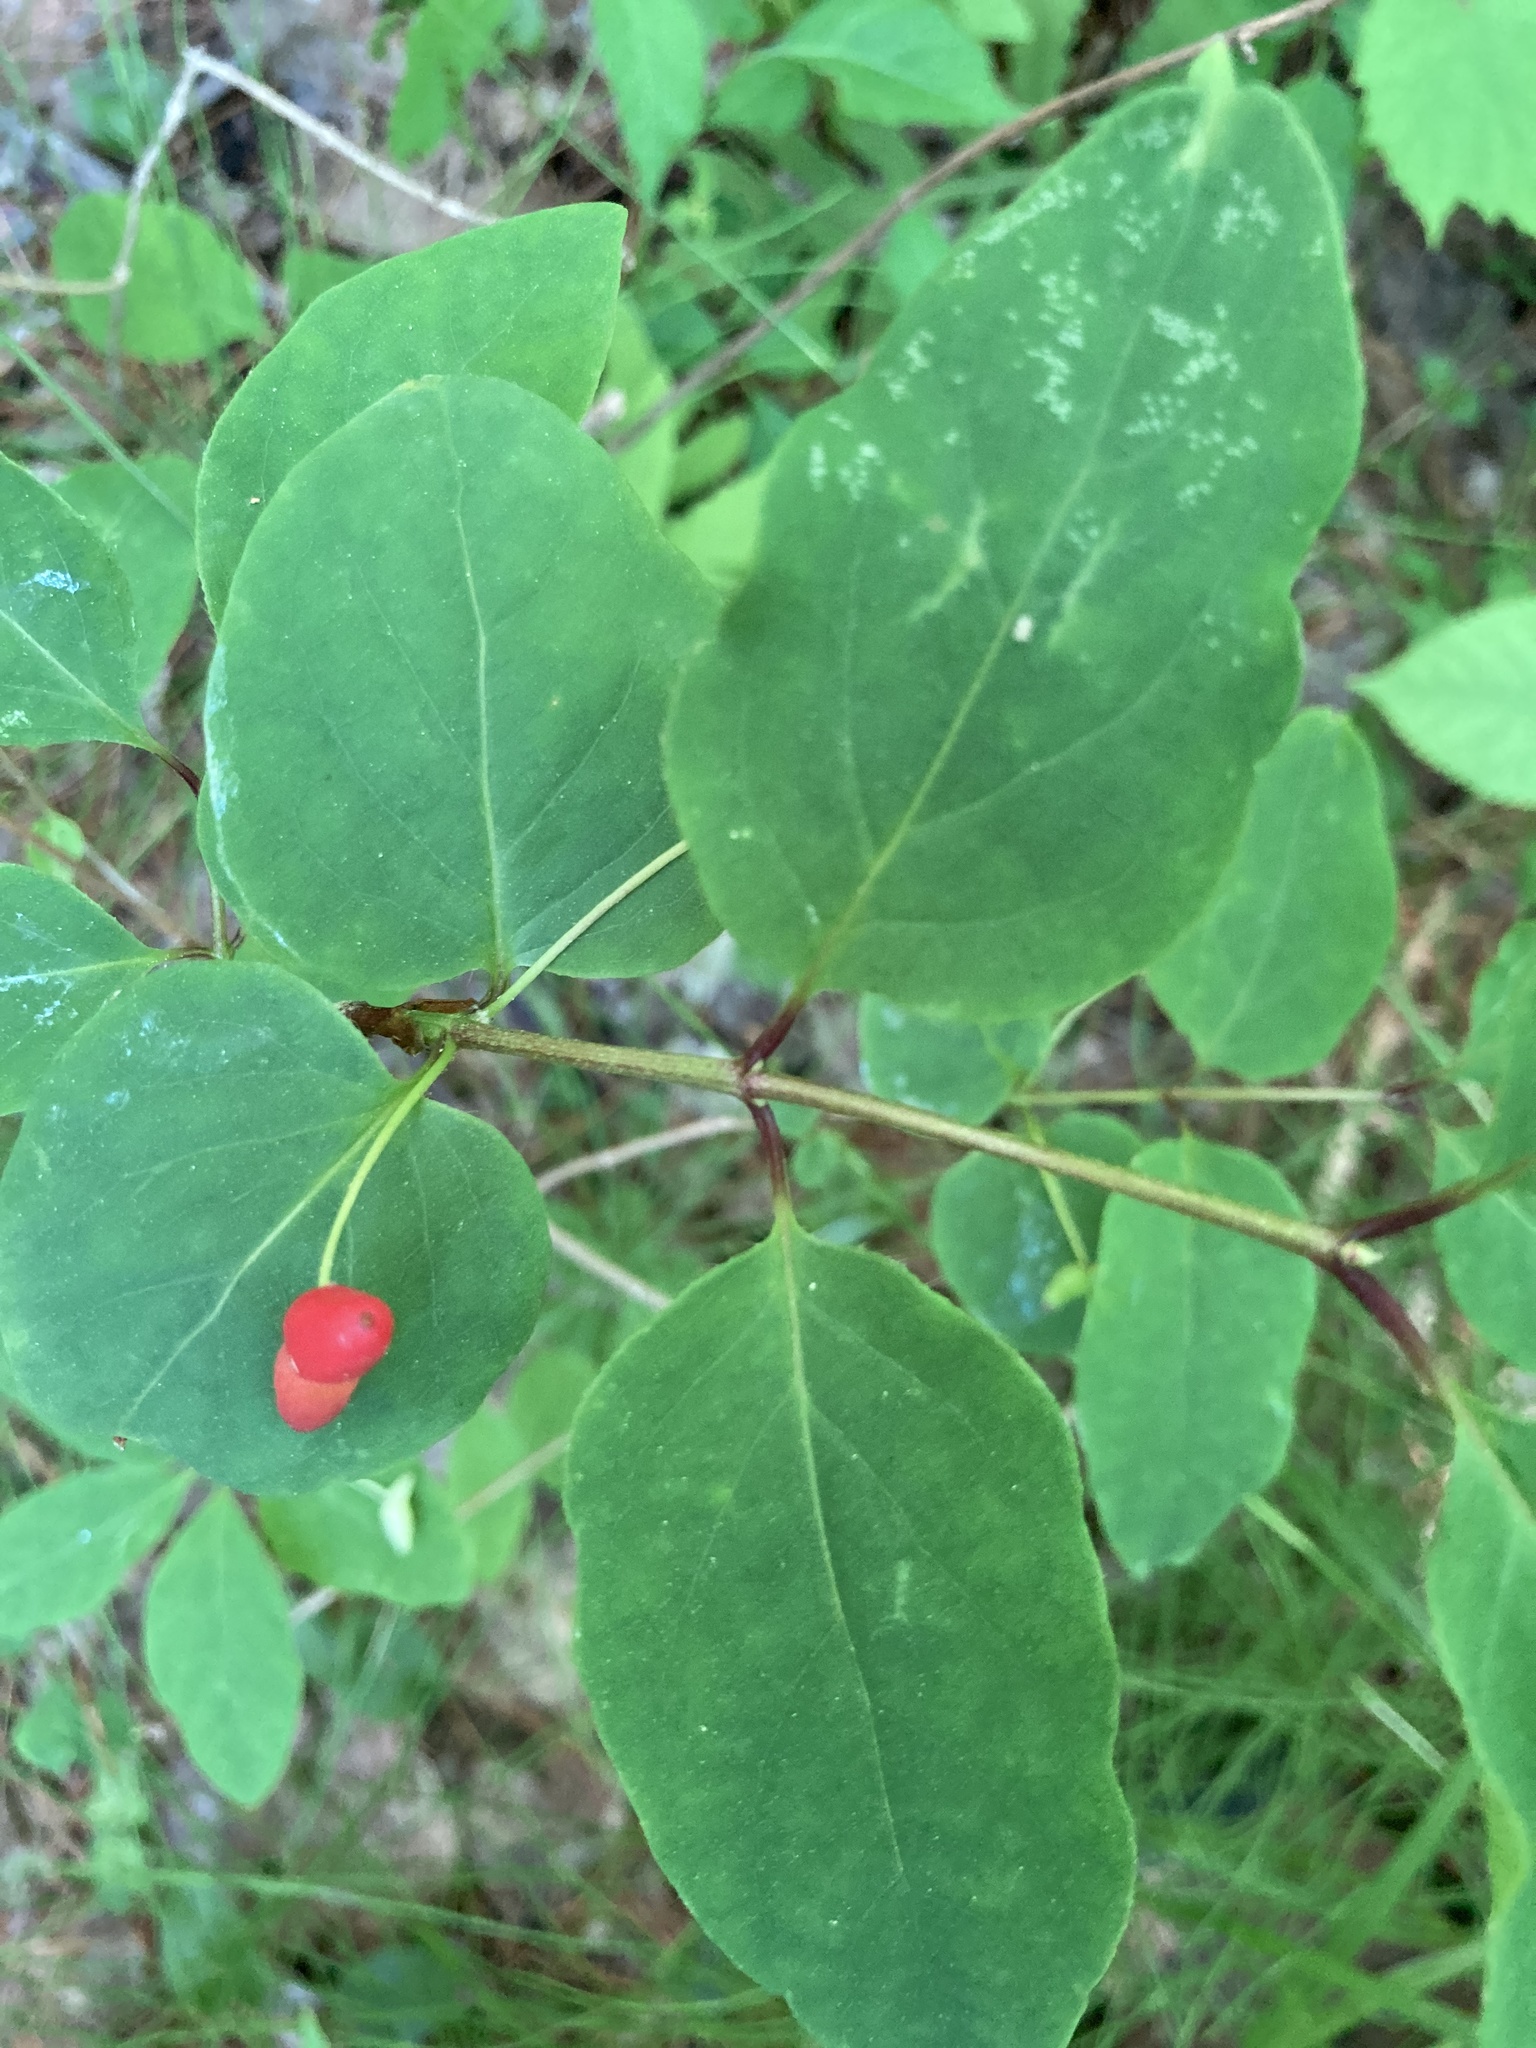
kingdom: Plantae
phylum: Tracheophyta
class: Magnoliopsida
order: Dipsacales
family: Caprifoliaceae
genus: Lonicera
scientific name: Lonicera canadensis
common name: American fly-honeysuckle
